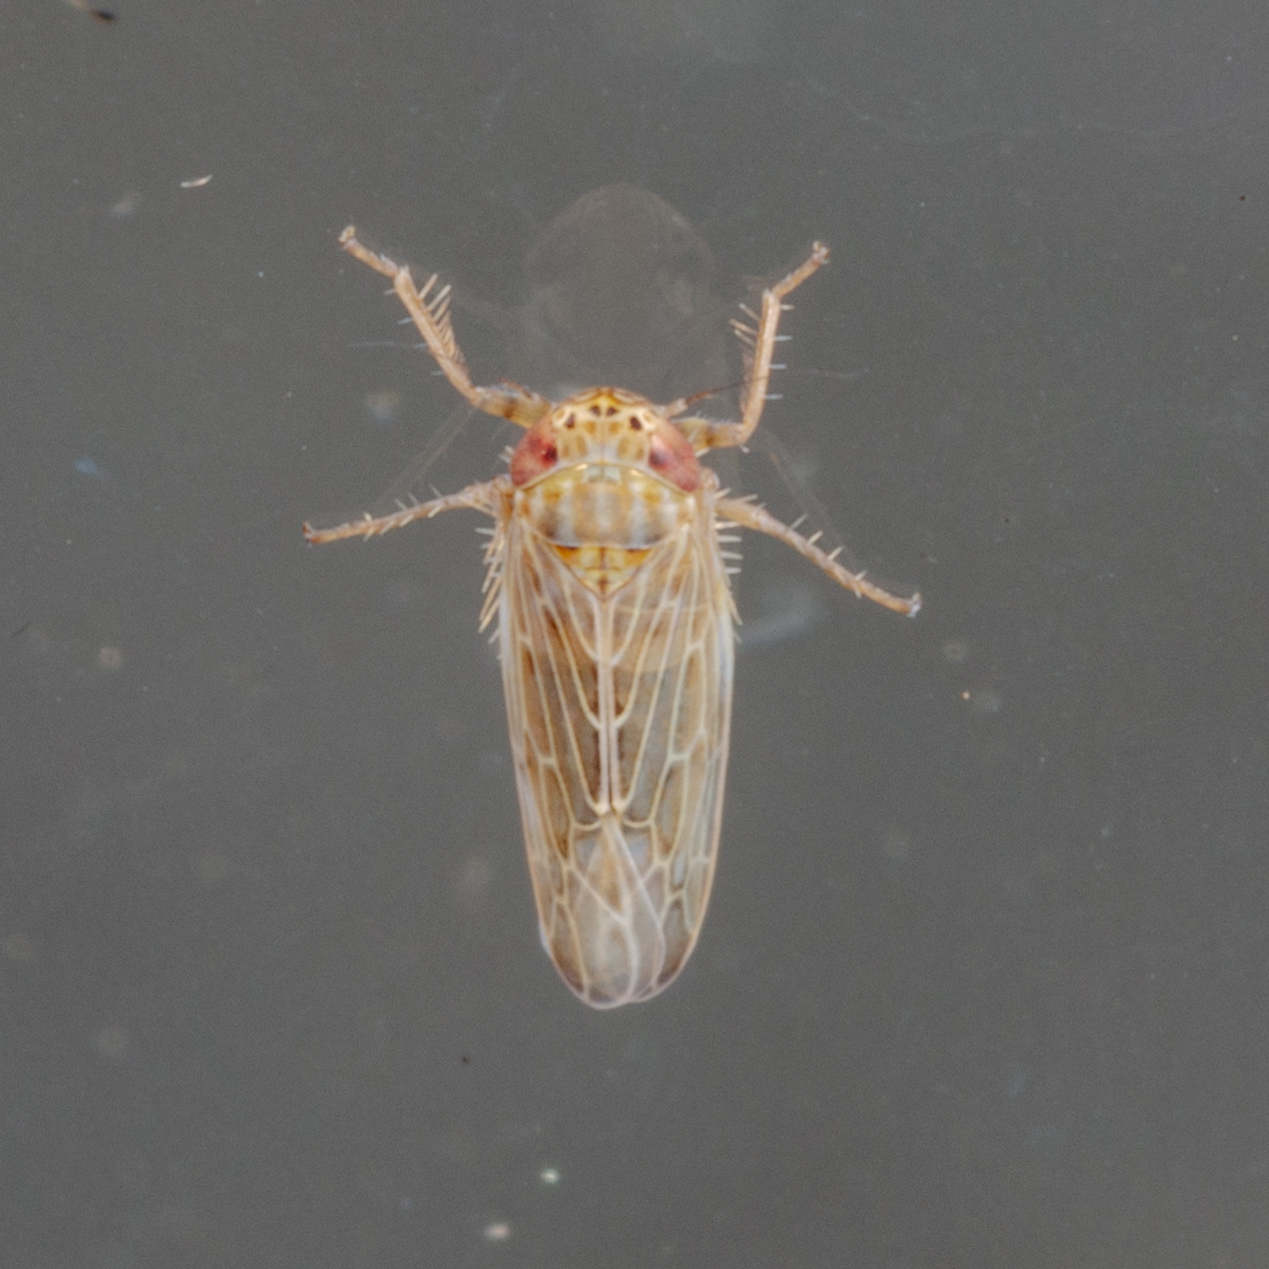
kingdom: Animalia
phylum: Arthropoda
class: Insecta
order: Hemiptera
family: Cicadellidae
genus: Graminella
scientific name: Graminella sonora
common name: Lesser lawn leafhopper
